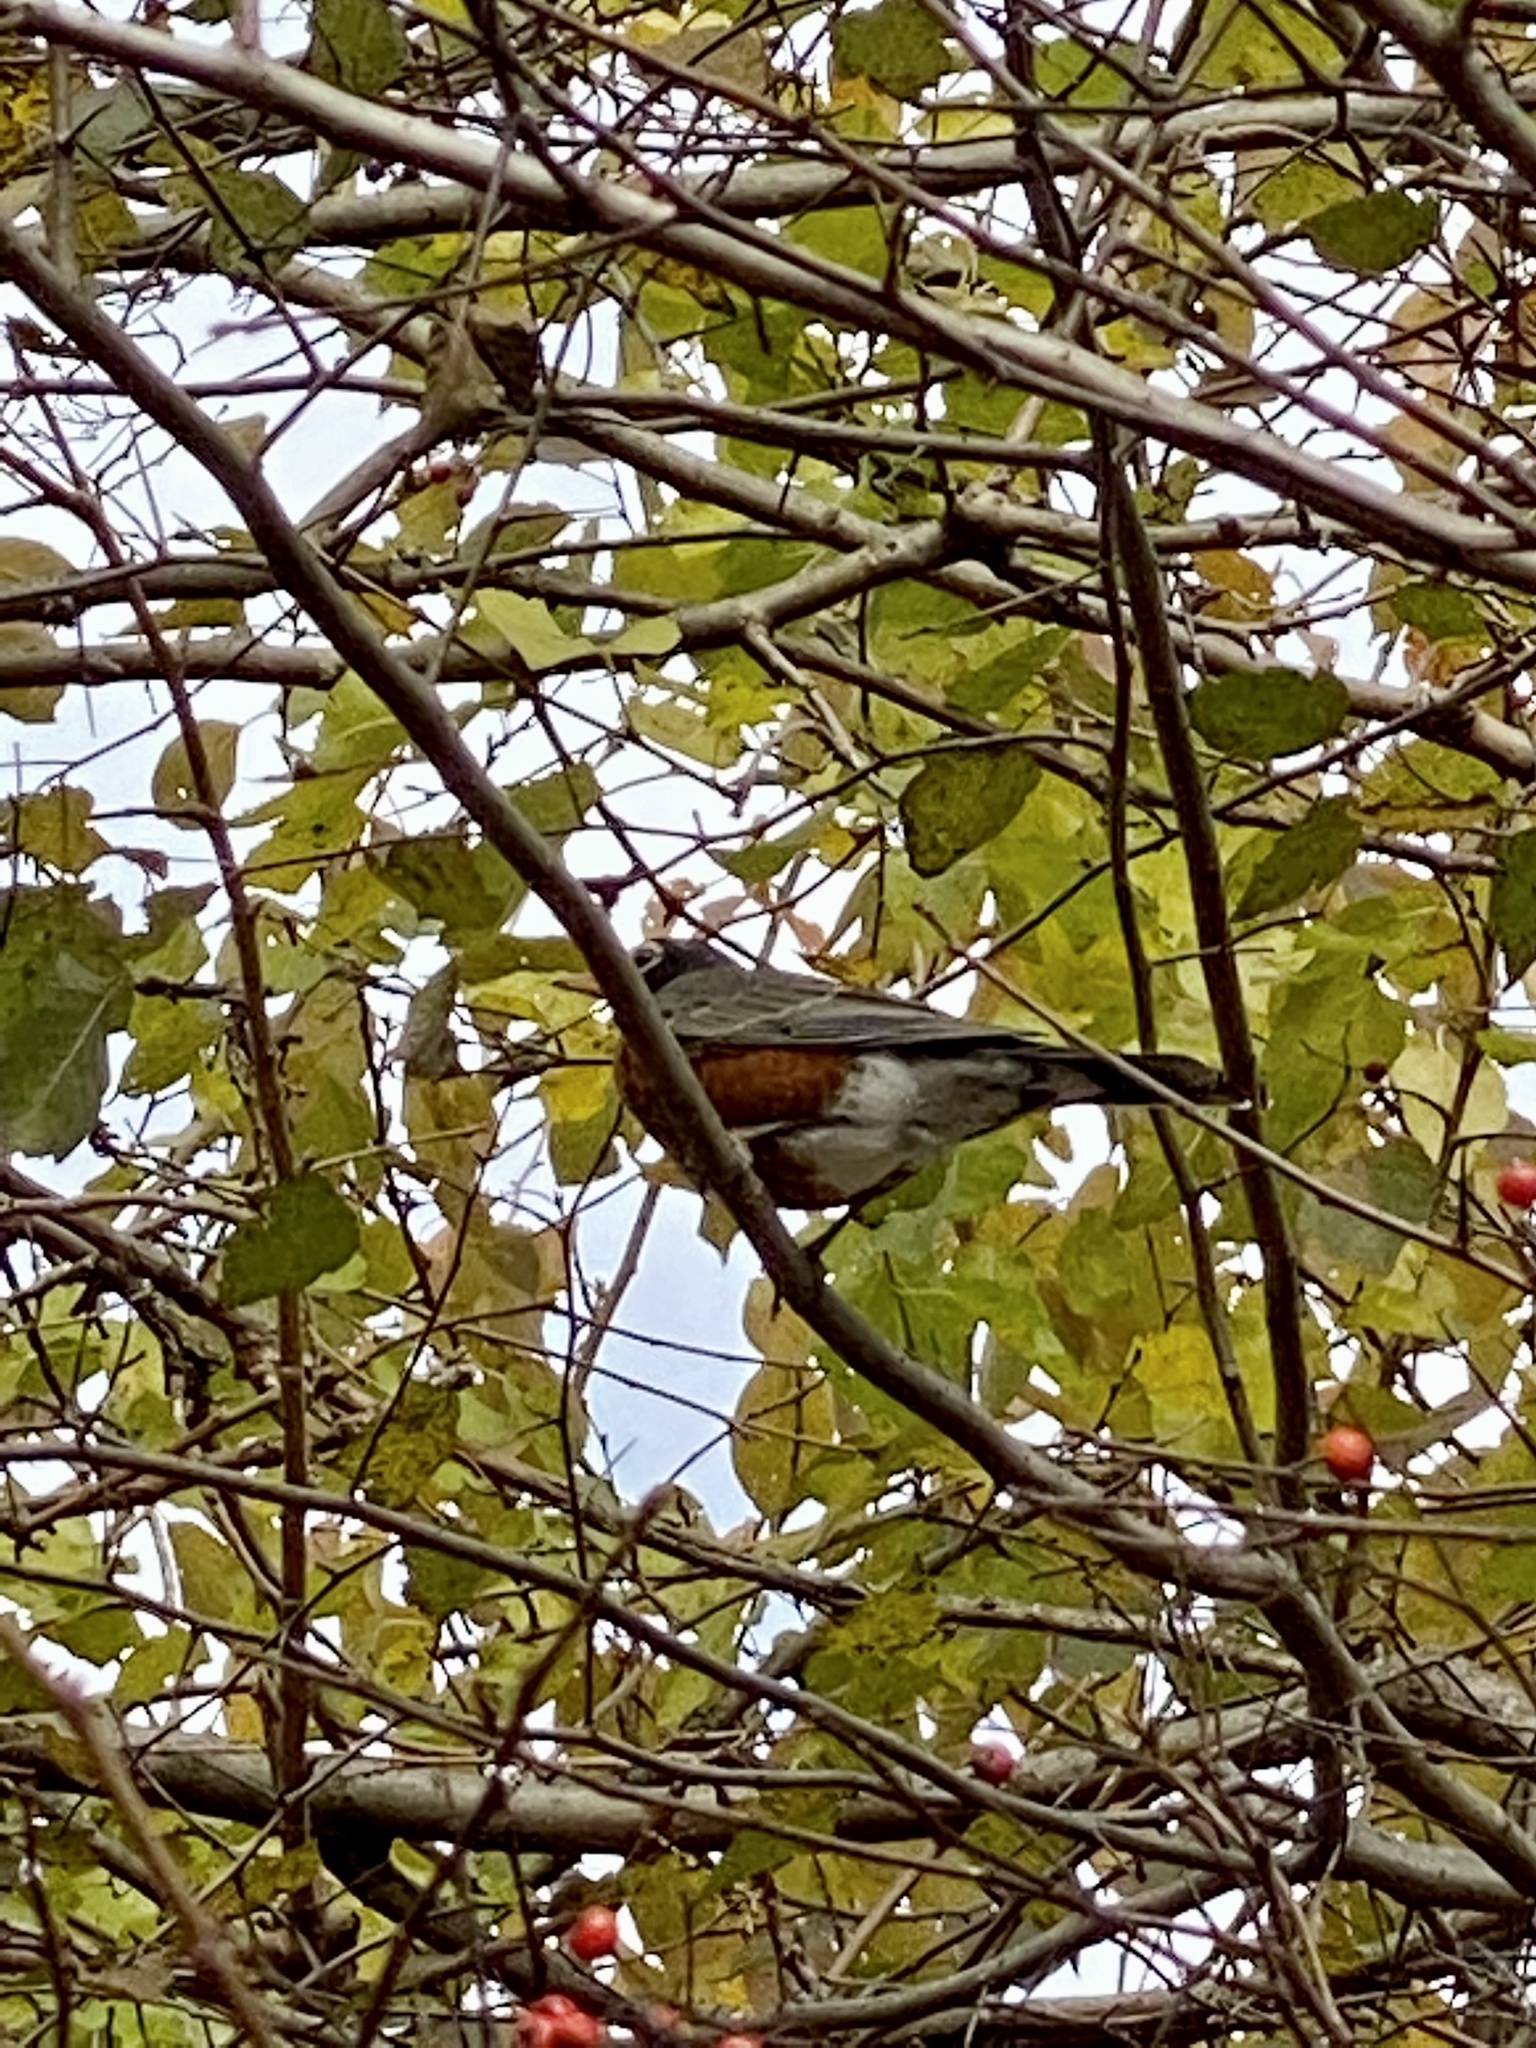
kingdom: Animalia
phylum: Chordata
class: Aves
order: Passeriformes
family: Turdidae
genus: Turdus
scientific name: Turdus migratorius
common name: American robin
